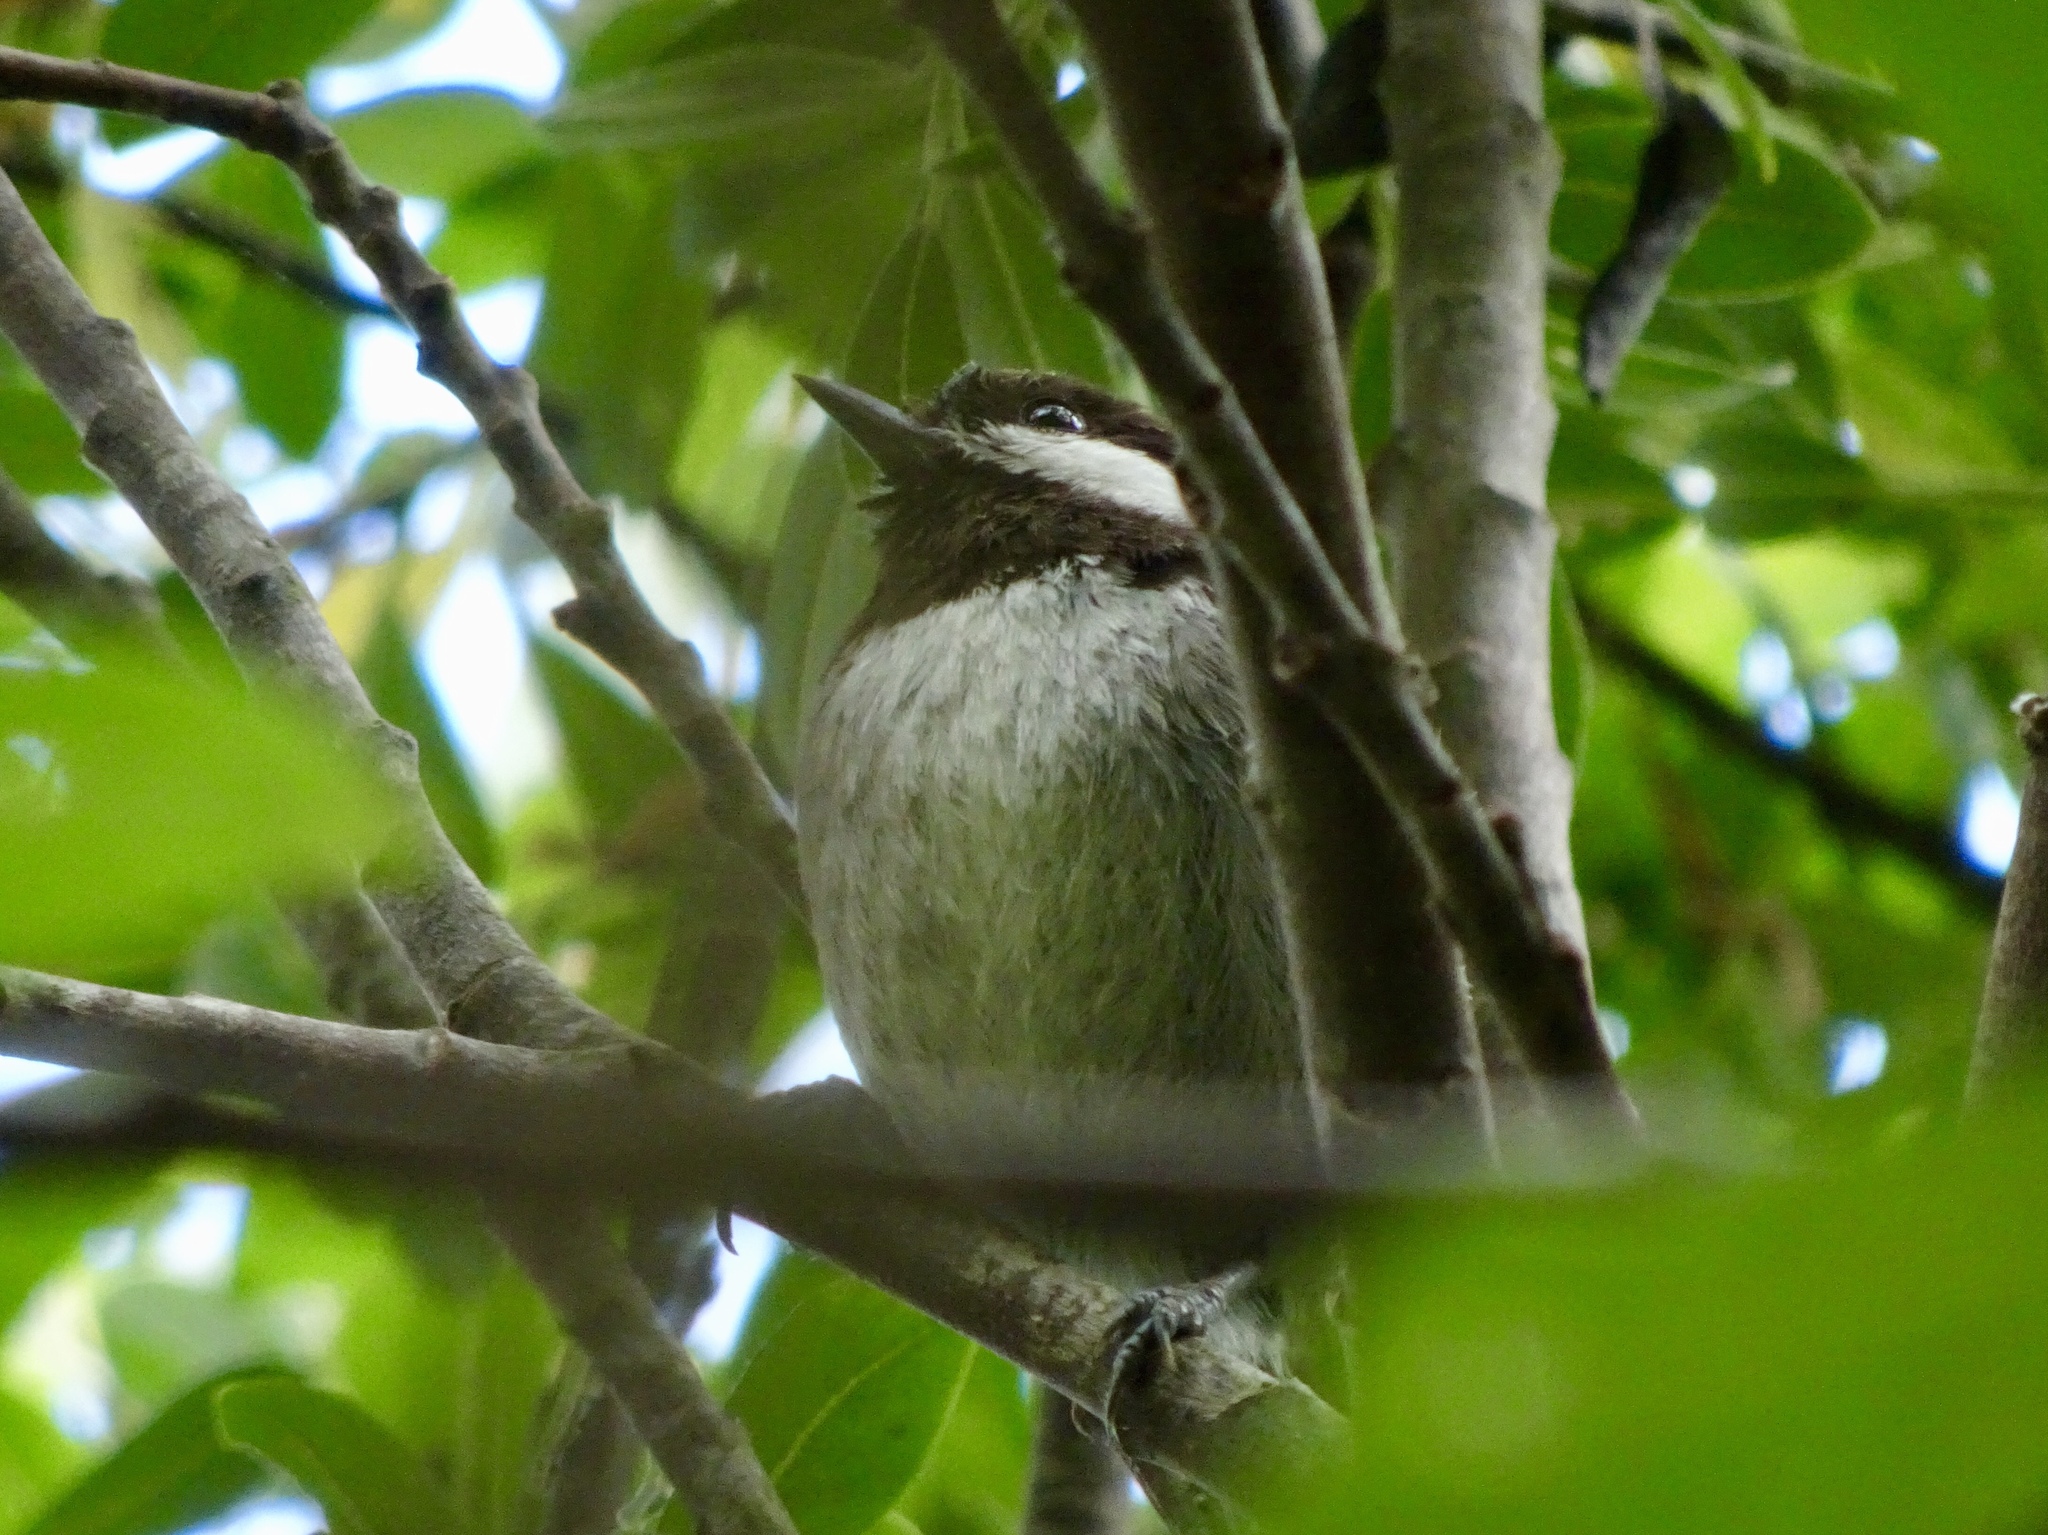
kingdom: Animalia
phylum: Chordata
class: Aves
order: Passeriformes
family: Paridae
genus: Poecile
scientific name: Poecile rufescens
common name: Chestnut-backed chickadee
